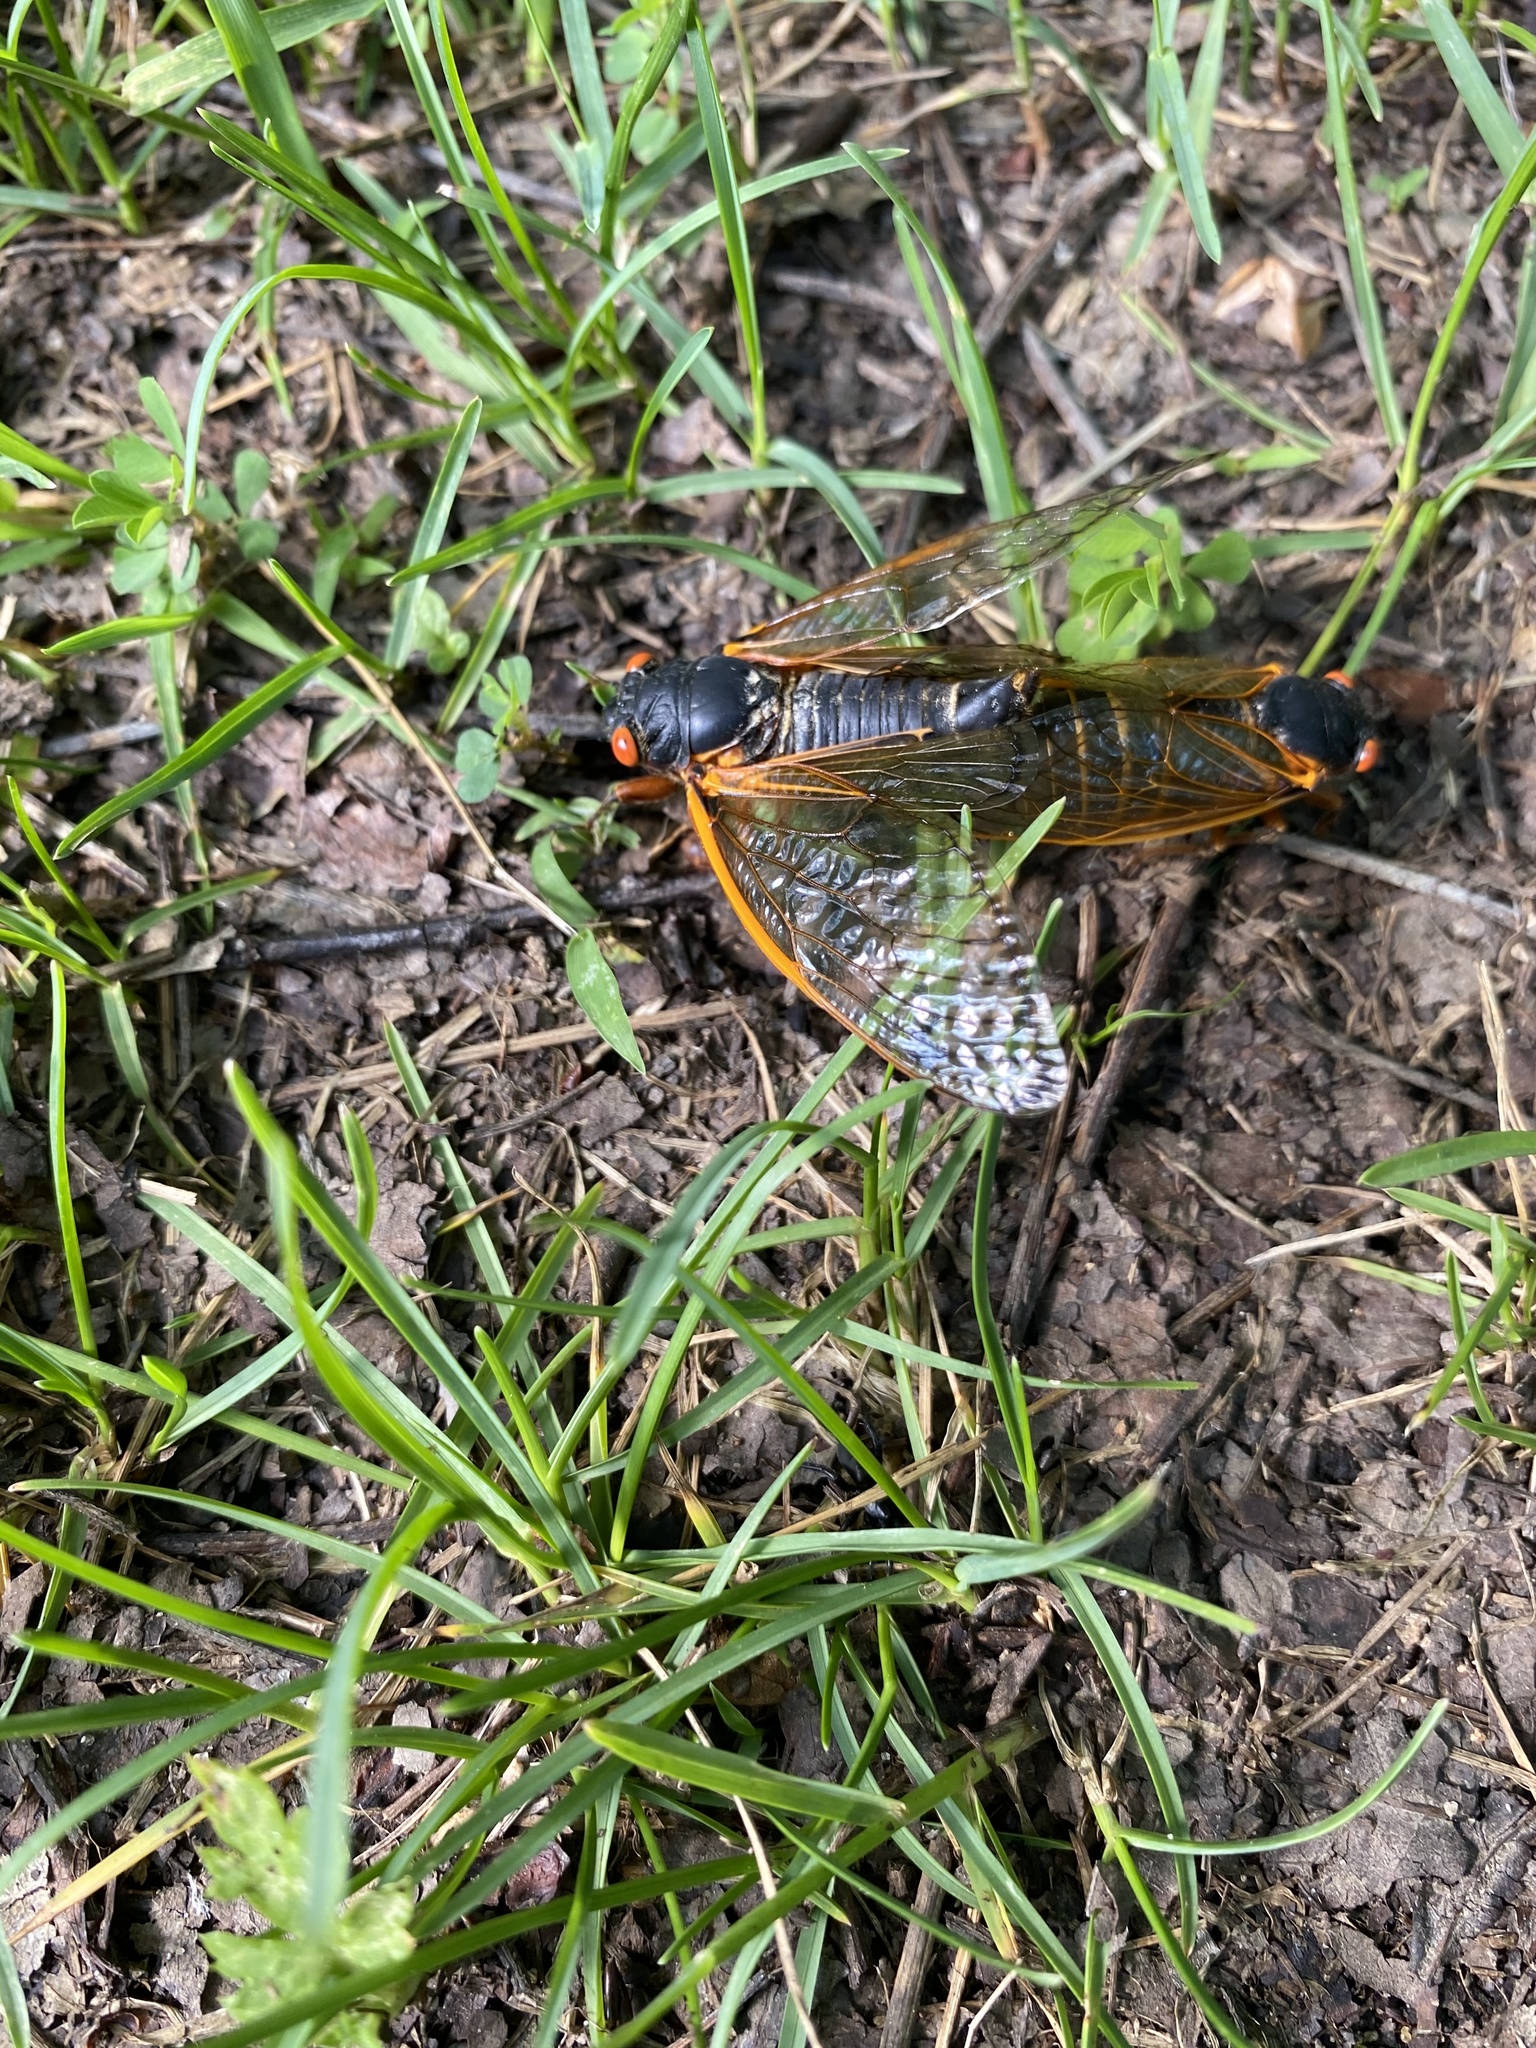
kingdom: Animalia
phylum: Arthropoda
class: Insecta
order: Hemiptera
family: Cicadidae
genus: Magicicada
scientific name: Magicicada septendecim
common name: Periodical cicada
